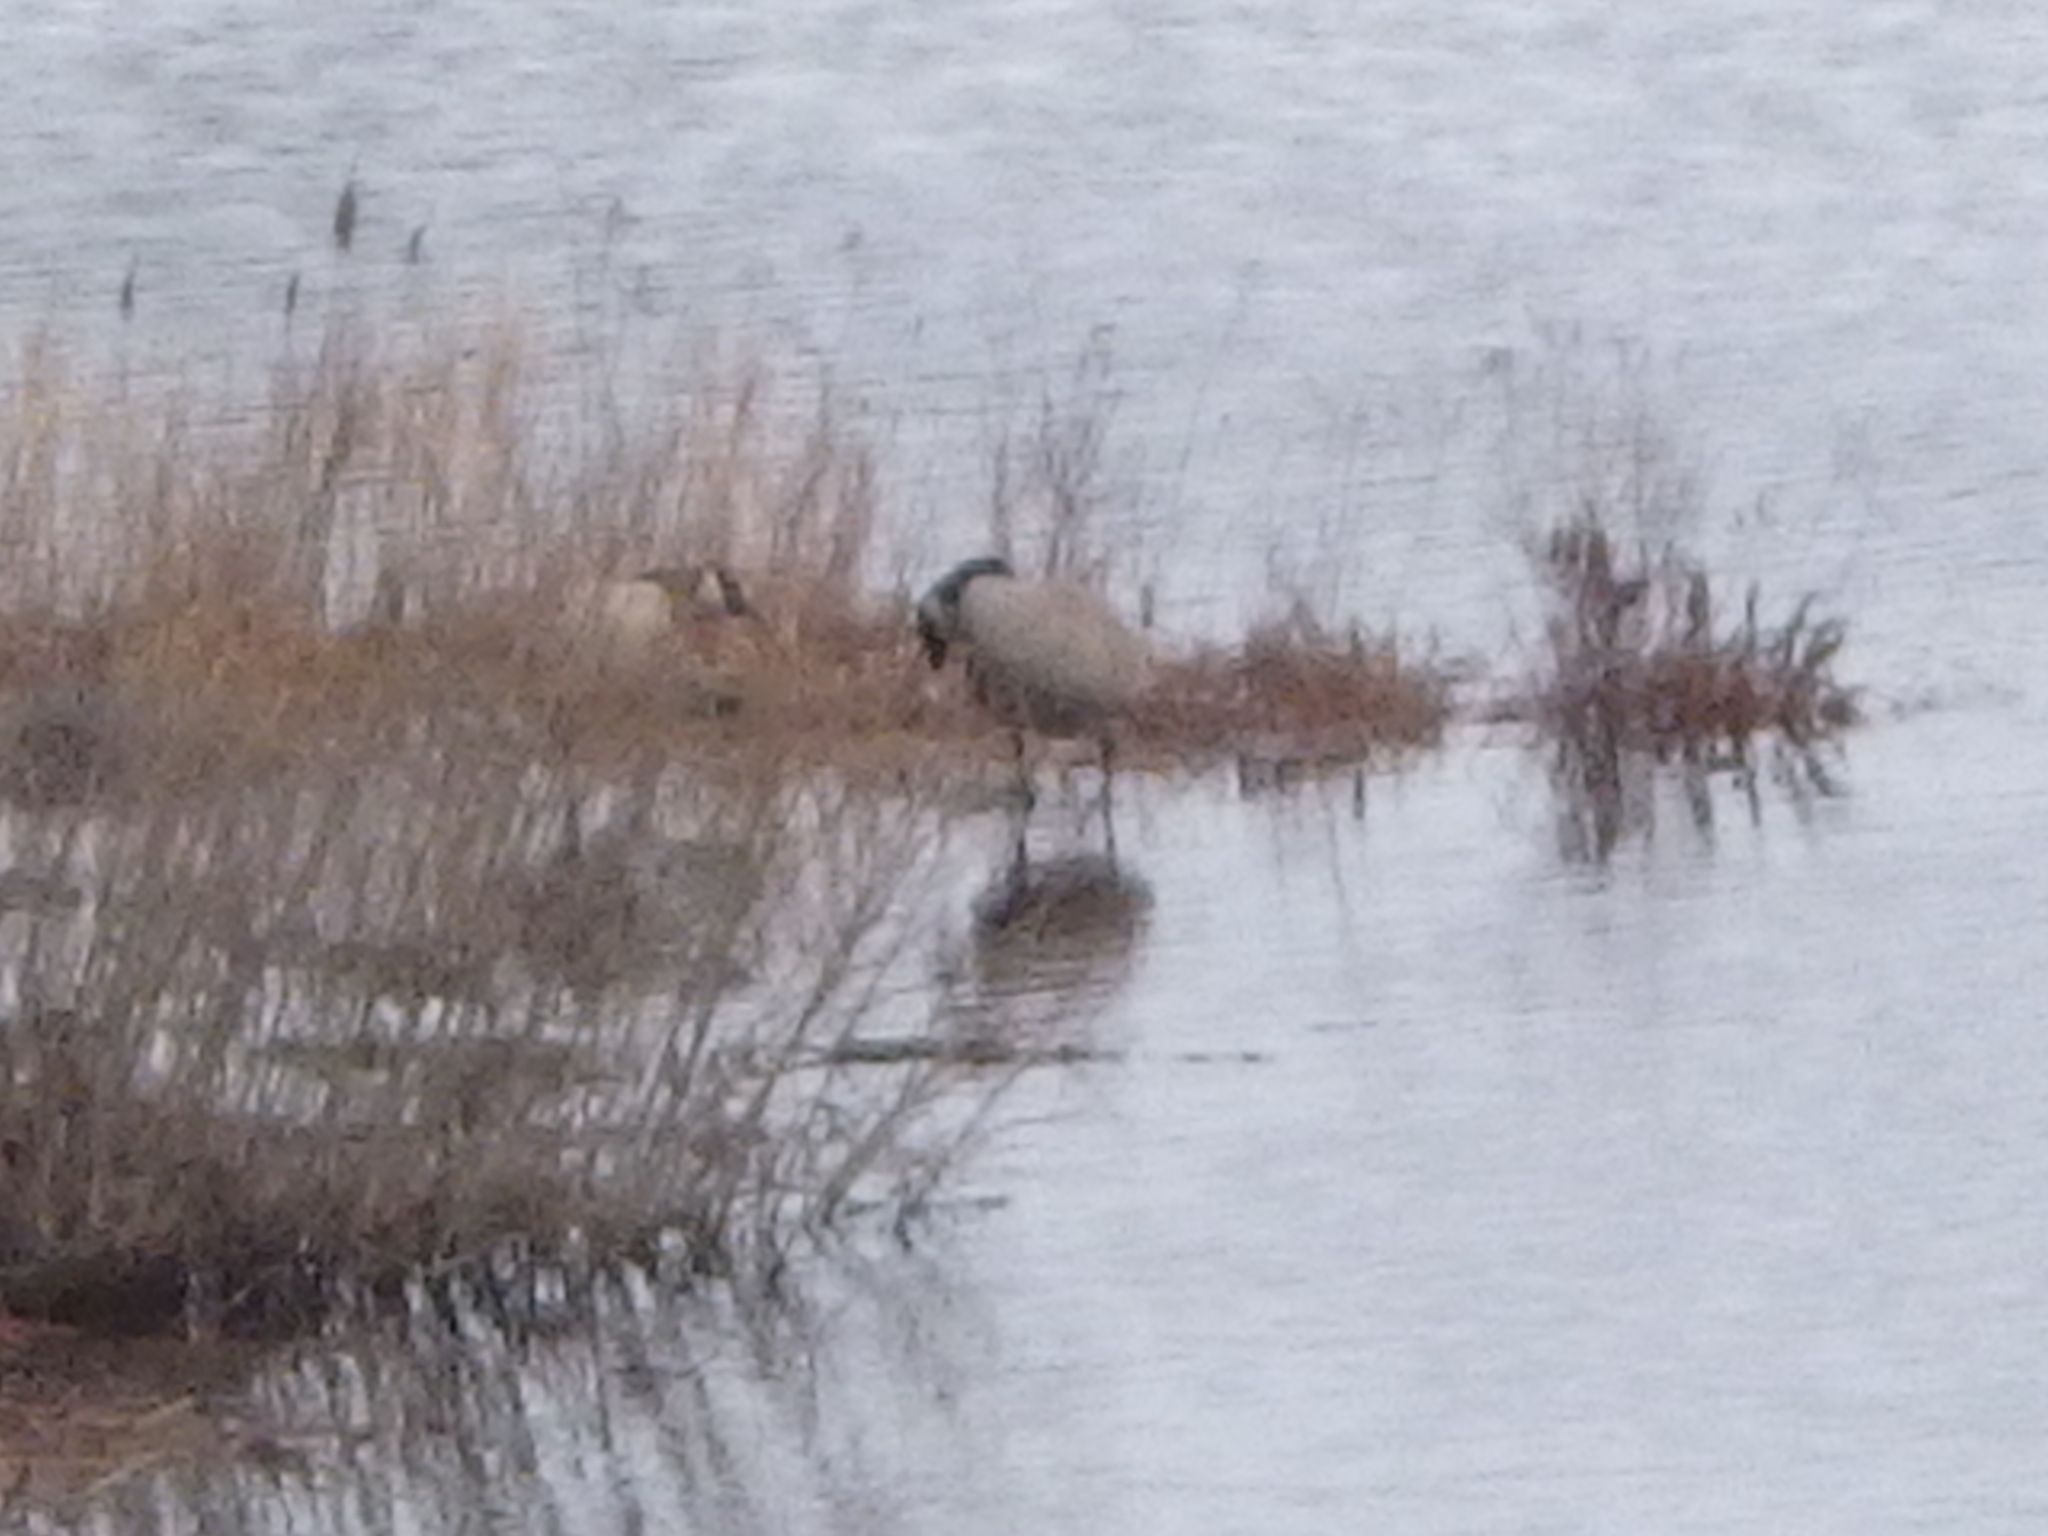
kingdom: Animalia
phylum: Chordata
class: Aves
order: Anseriformes
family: Anatidae
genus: Branta
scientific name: Branta canadensis
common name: Canada goose
